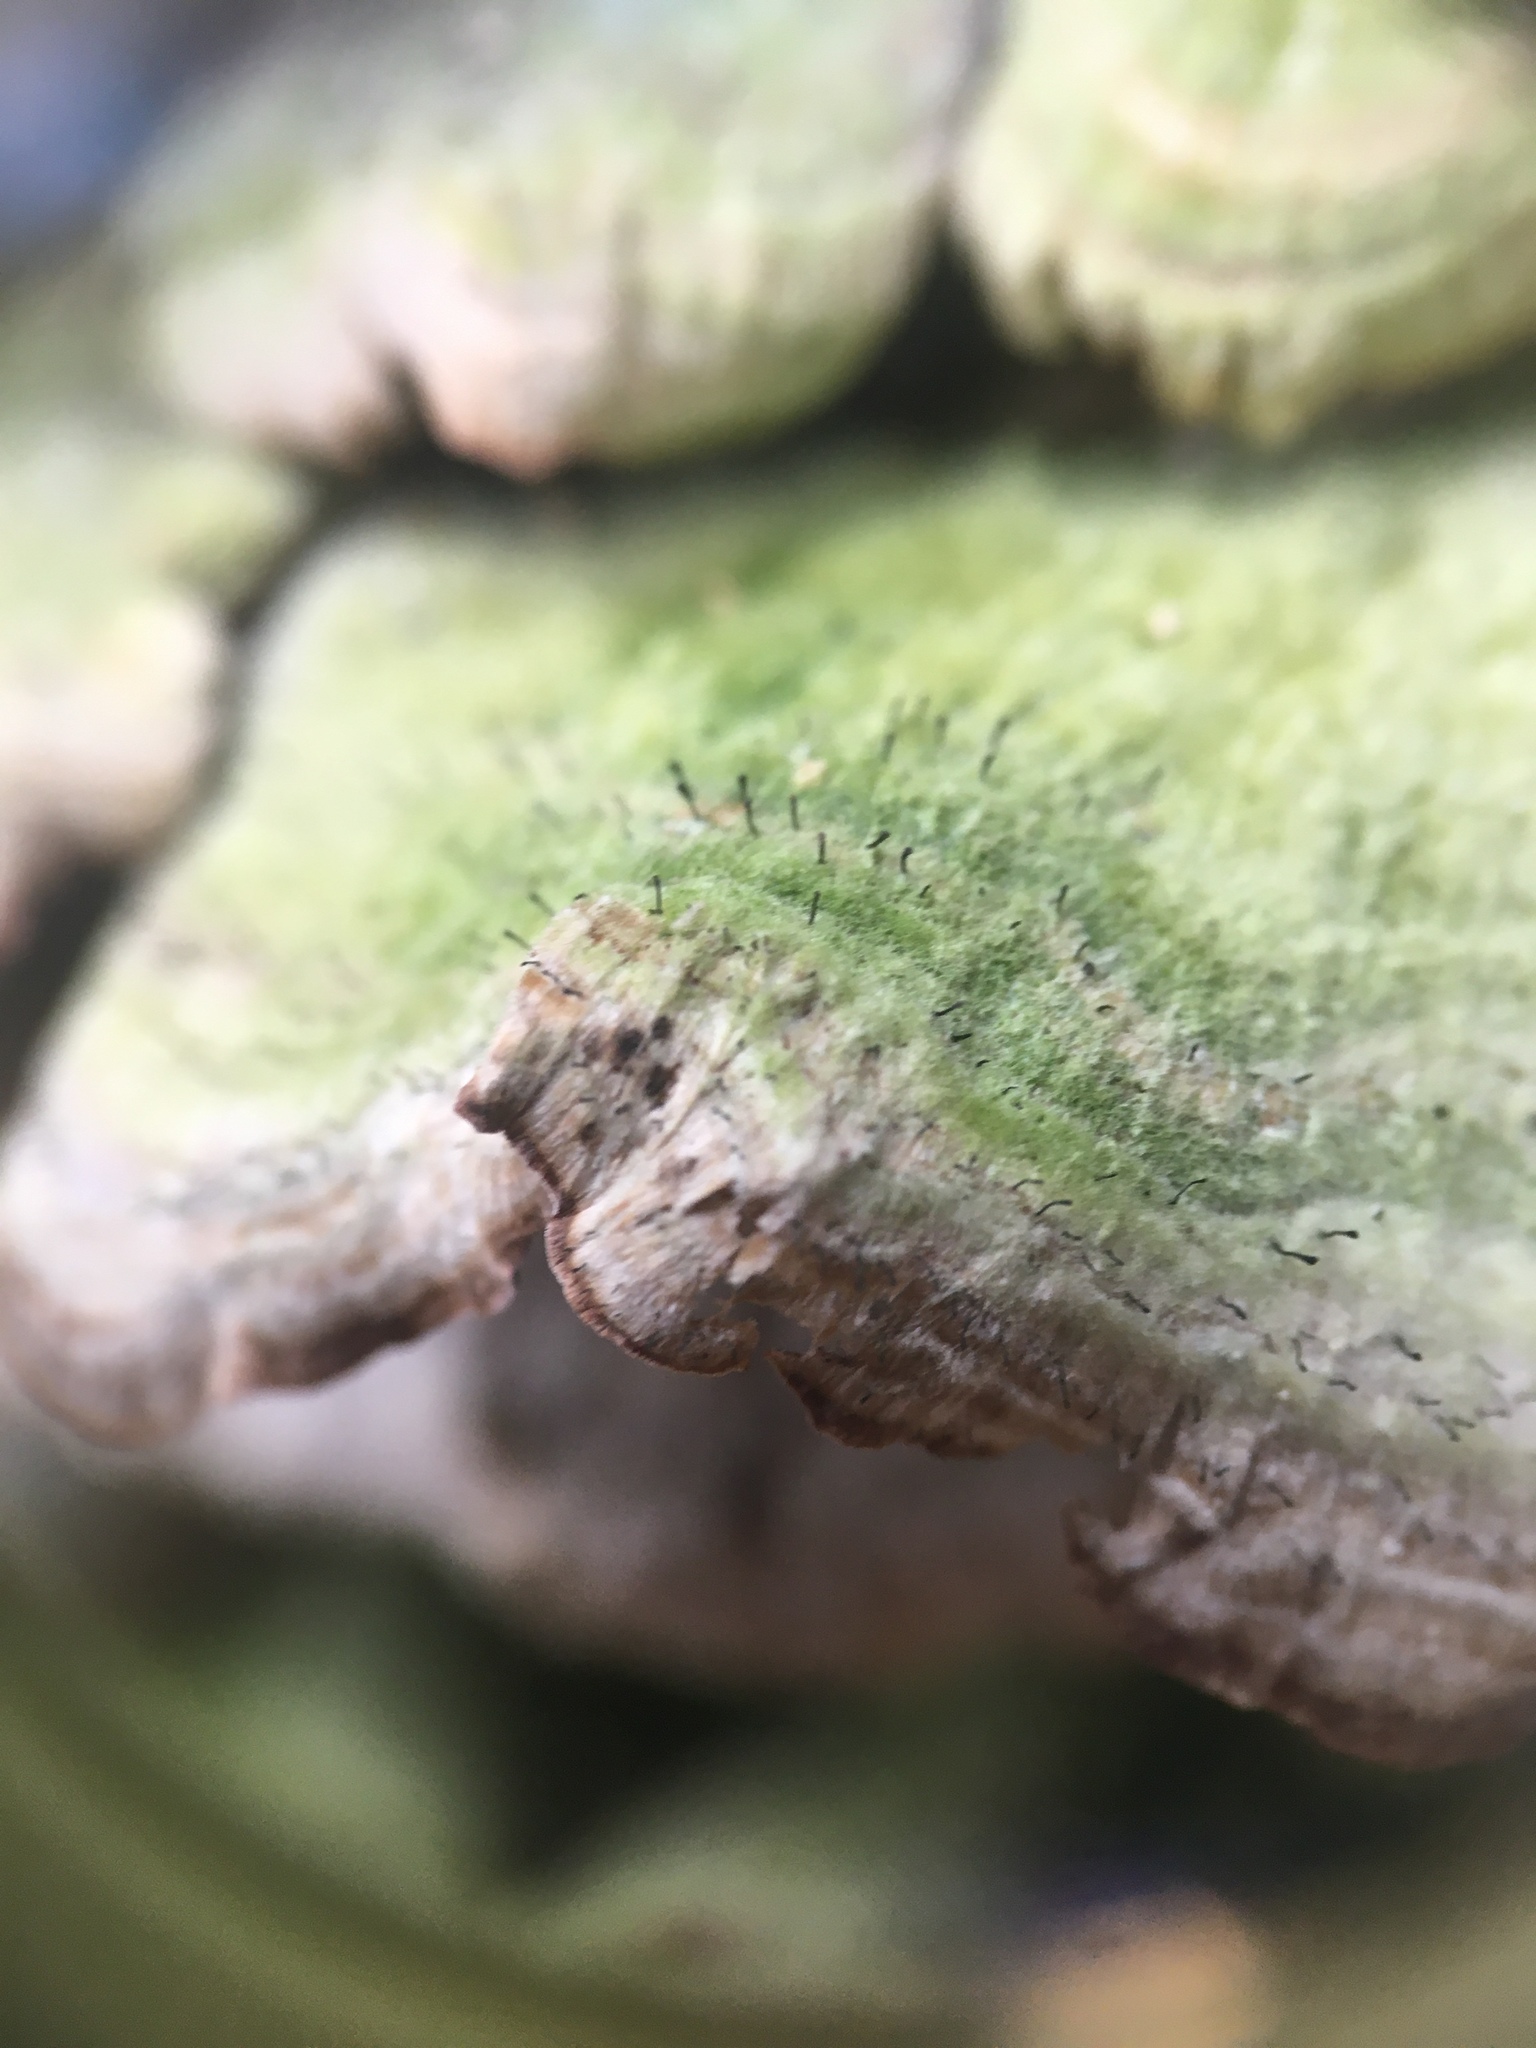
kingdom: Fungi
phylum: Ascomycota
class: Eurotiomycetes
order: Mycocaliciales
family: Mycocaliciaceae
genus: Phaeocalicium
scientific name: Phaeocalicium polyporaeum
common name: Fairy pins
